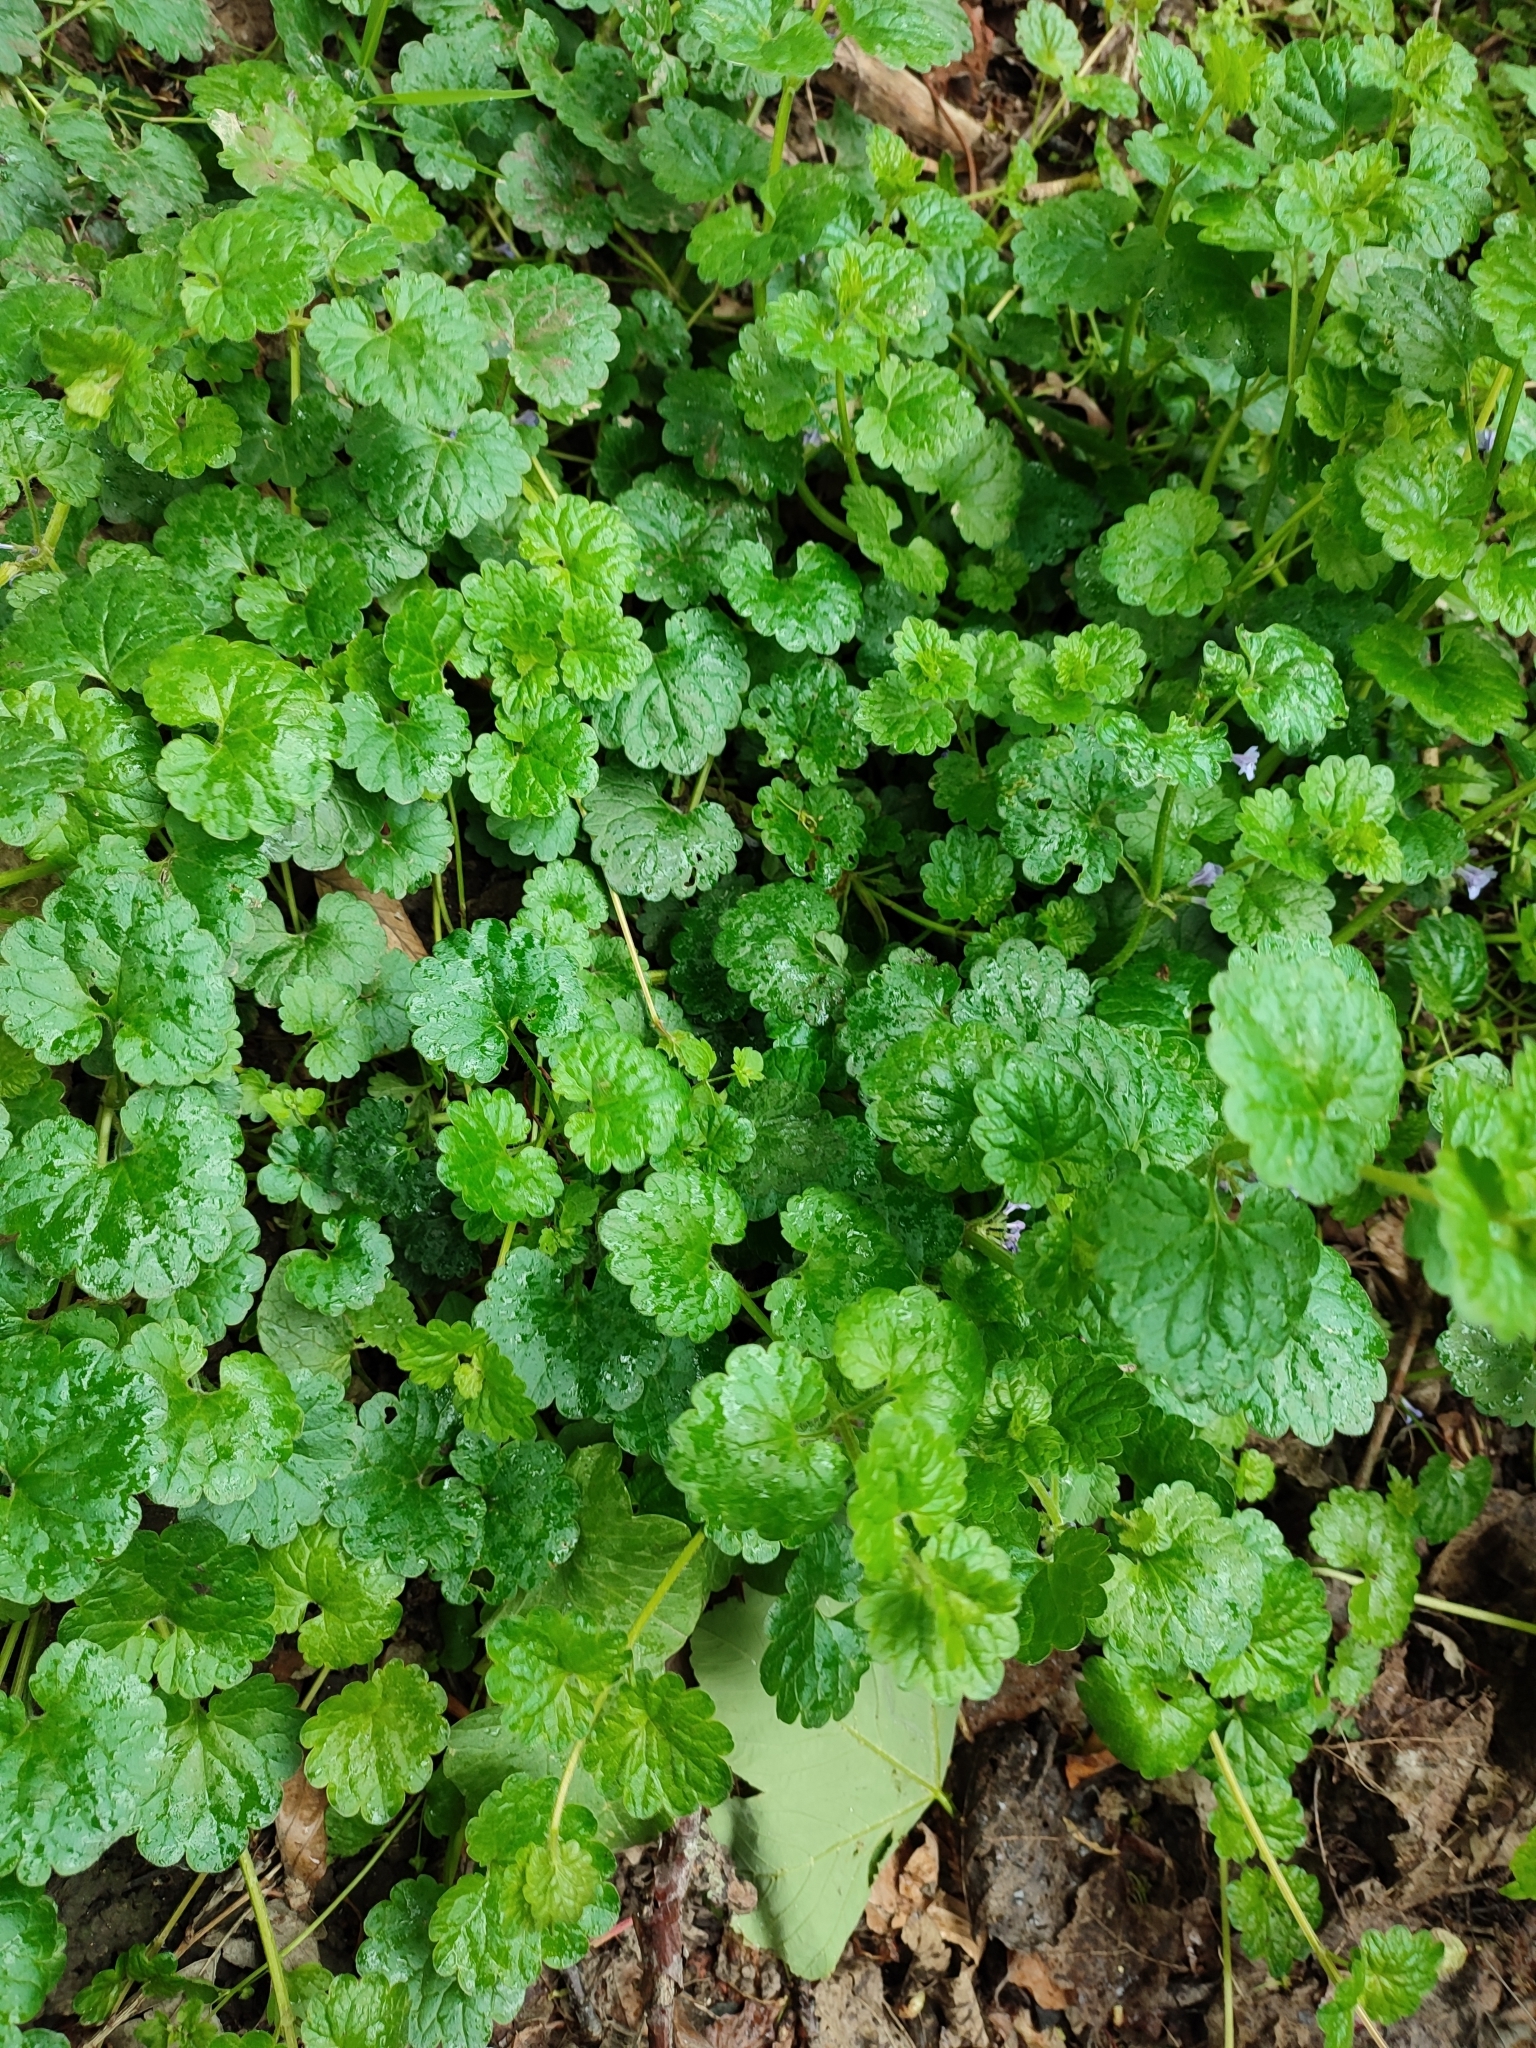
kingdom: Plantae
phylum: Tracheophyta
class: Magnoliopsida
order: Lamiales
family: Lamiaceae
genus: Glechoma
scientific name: Glechoma hederacea
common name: Ground ivy
